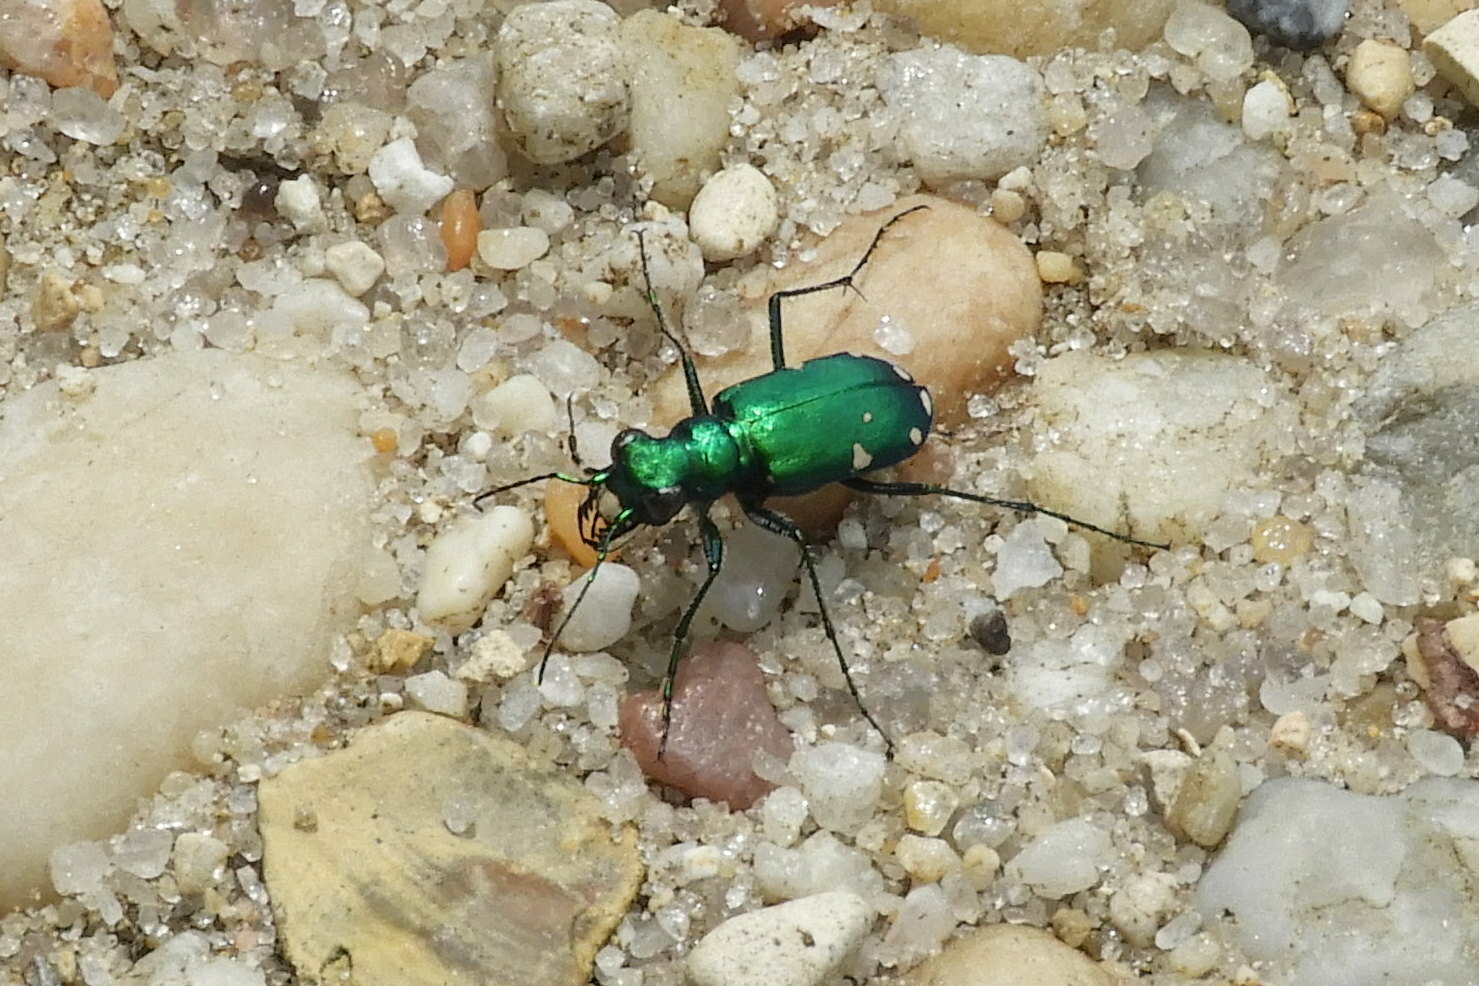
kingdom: Animalia
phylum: Arthropoda
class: Insecta
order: Coleoptera
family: Carabidae
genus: Cicindela
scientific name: Cicindela sexguttata
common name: Six-spotted tiger beetle
